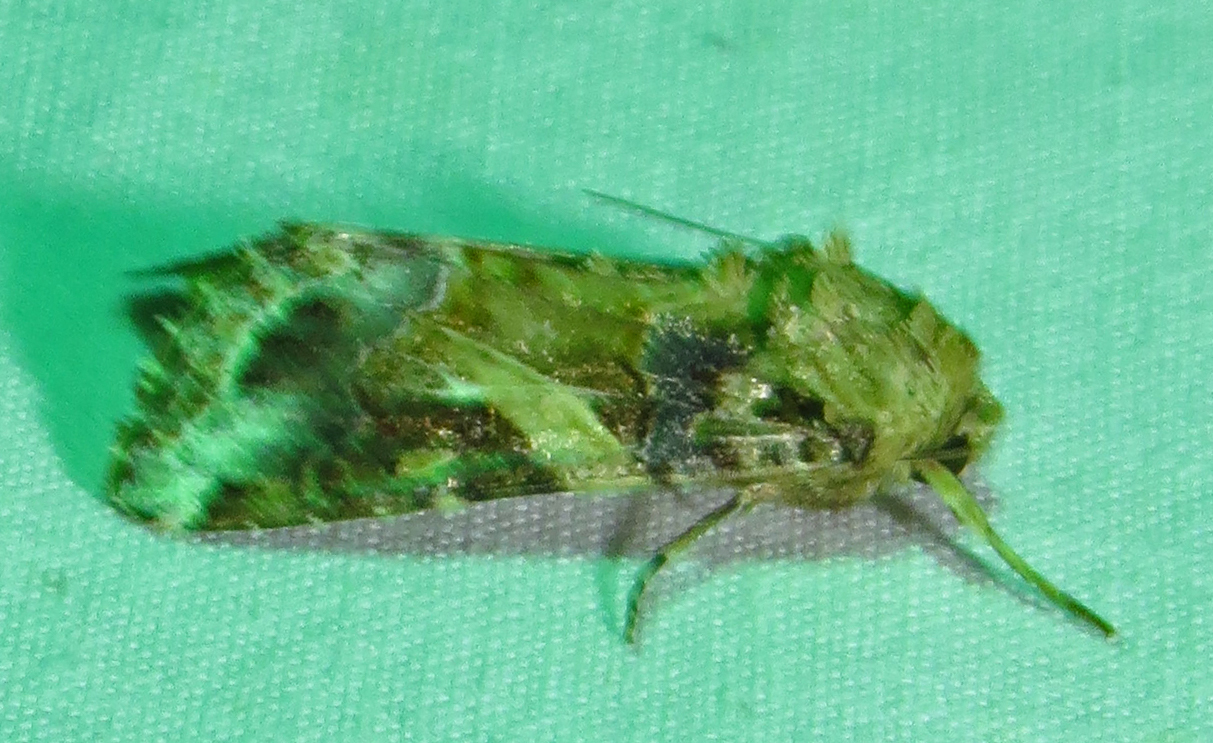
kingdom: Animalia
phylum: Arthropoda
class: Insecta
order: Lepidoptera
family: Noctuidae
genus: Spodoptera
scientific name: Spodoptera ornithogalli
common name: Yellow-striped armyworm
